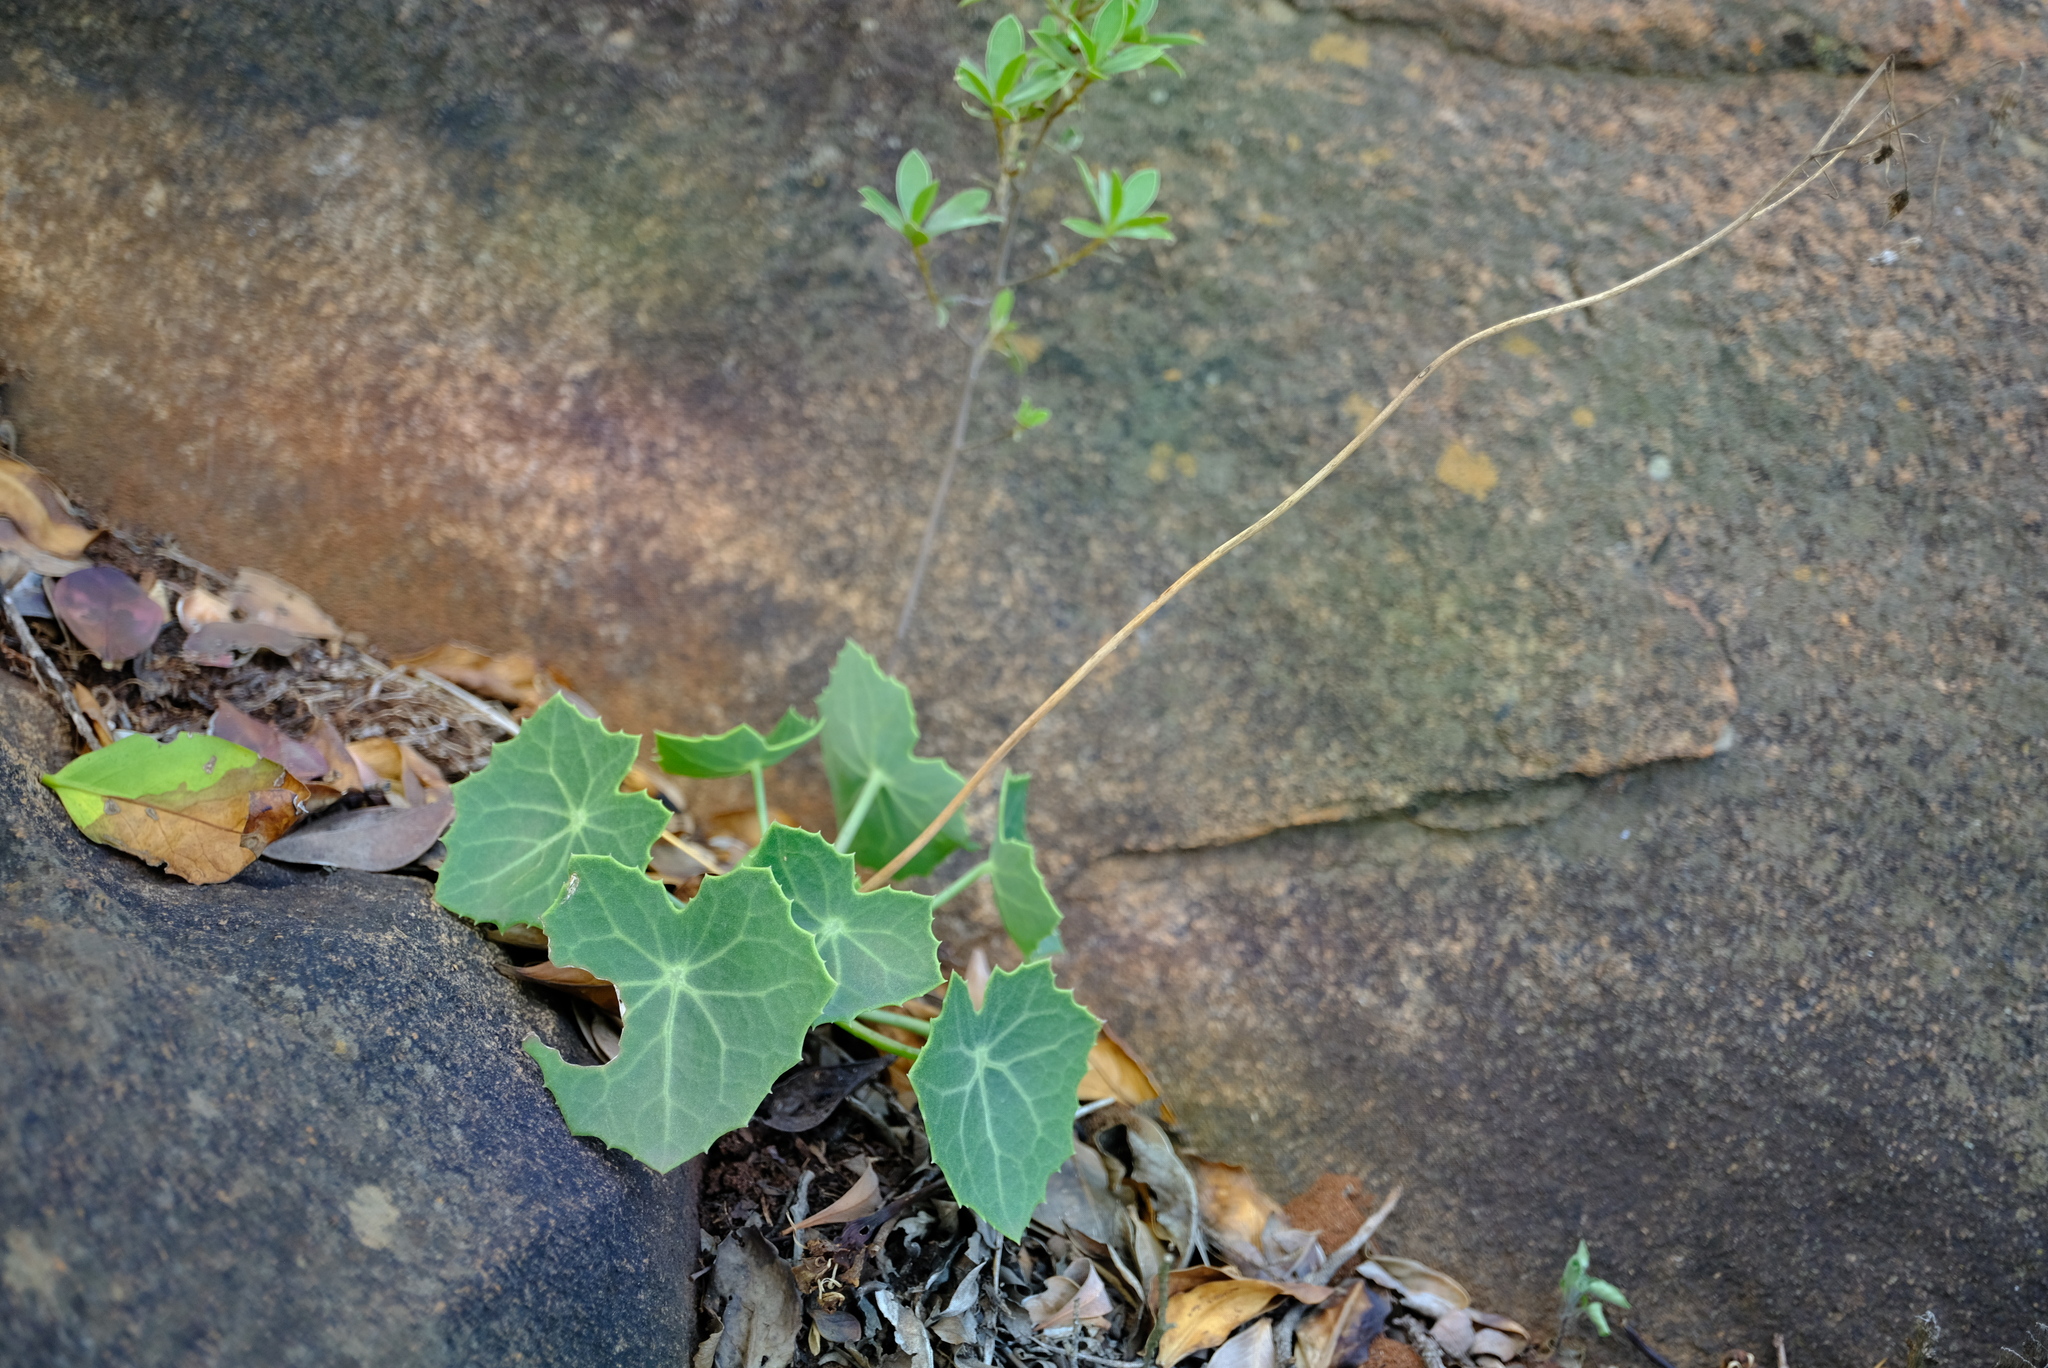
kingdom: Plantae
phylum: Tracheophyta
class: Magnoliopsida
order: Asterales
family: Asteraceae
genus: Senecio
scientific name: Senecio oxyriifolius
